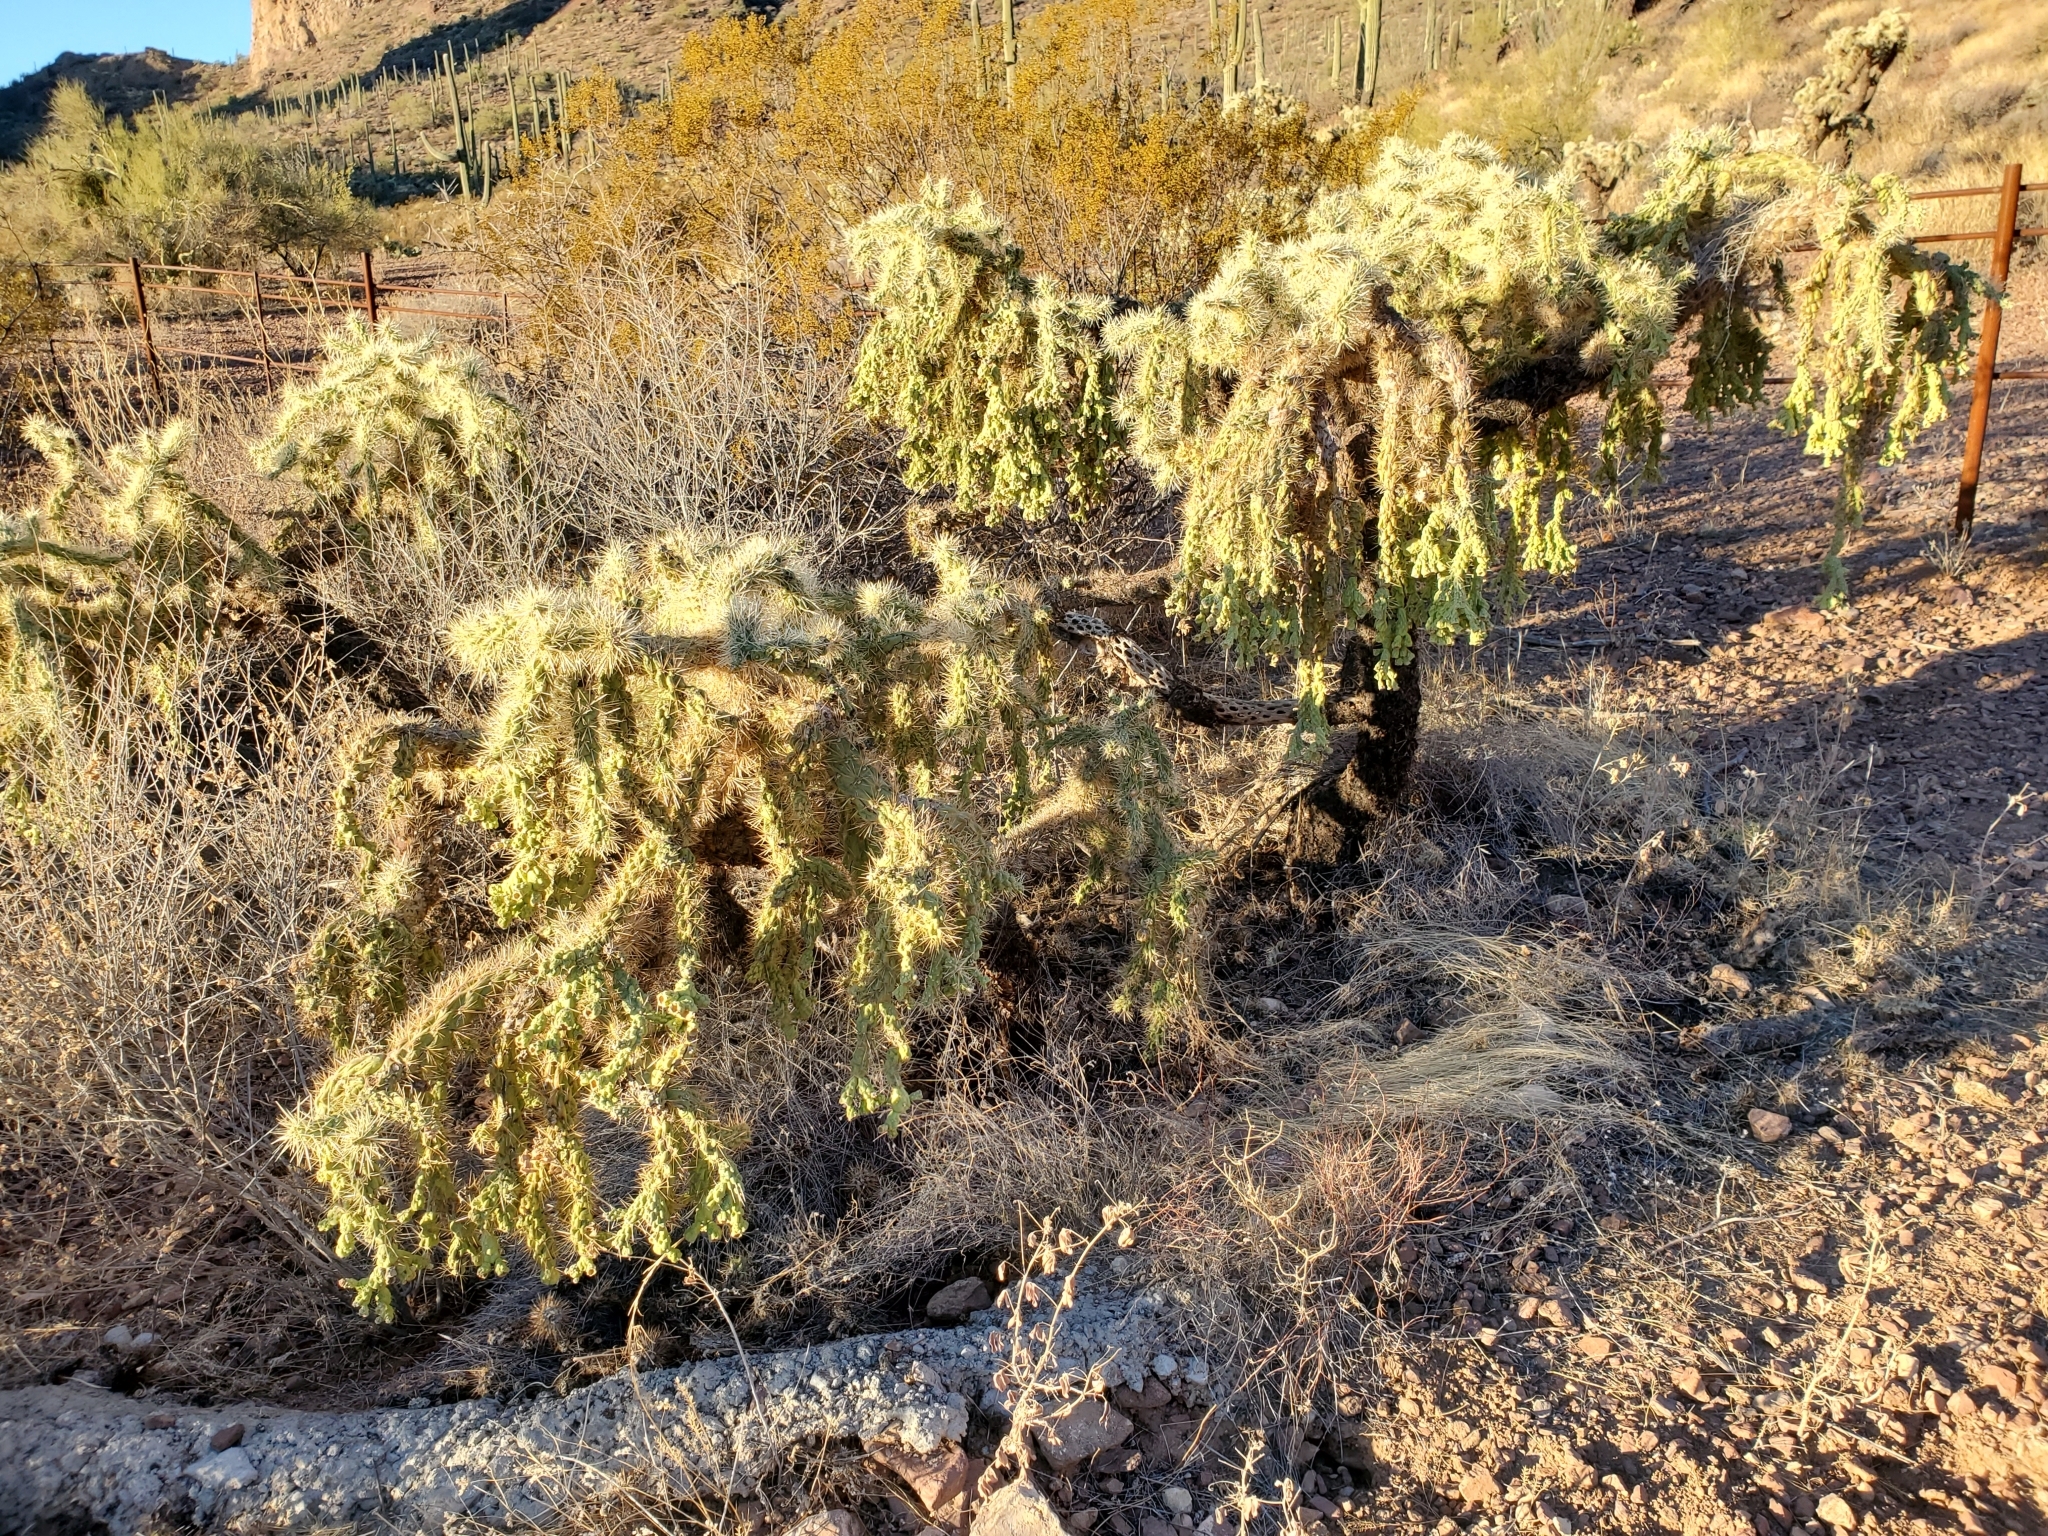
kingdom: Plantae
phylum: Tracheophyta
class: Magnoliopsida
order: Caryophyllales
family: Cactaceae
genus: Cylindropuntia
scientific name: Cylindropuntia fulgida
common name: Jumping cholla
